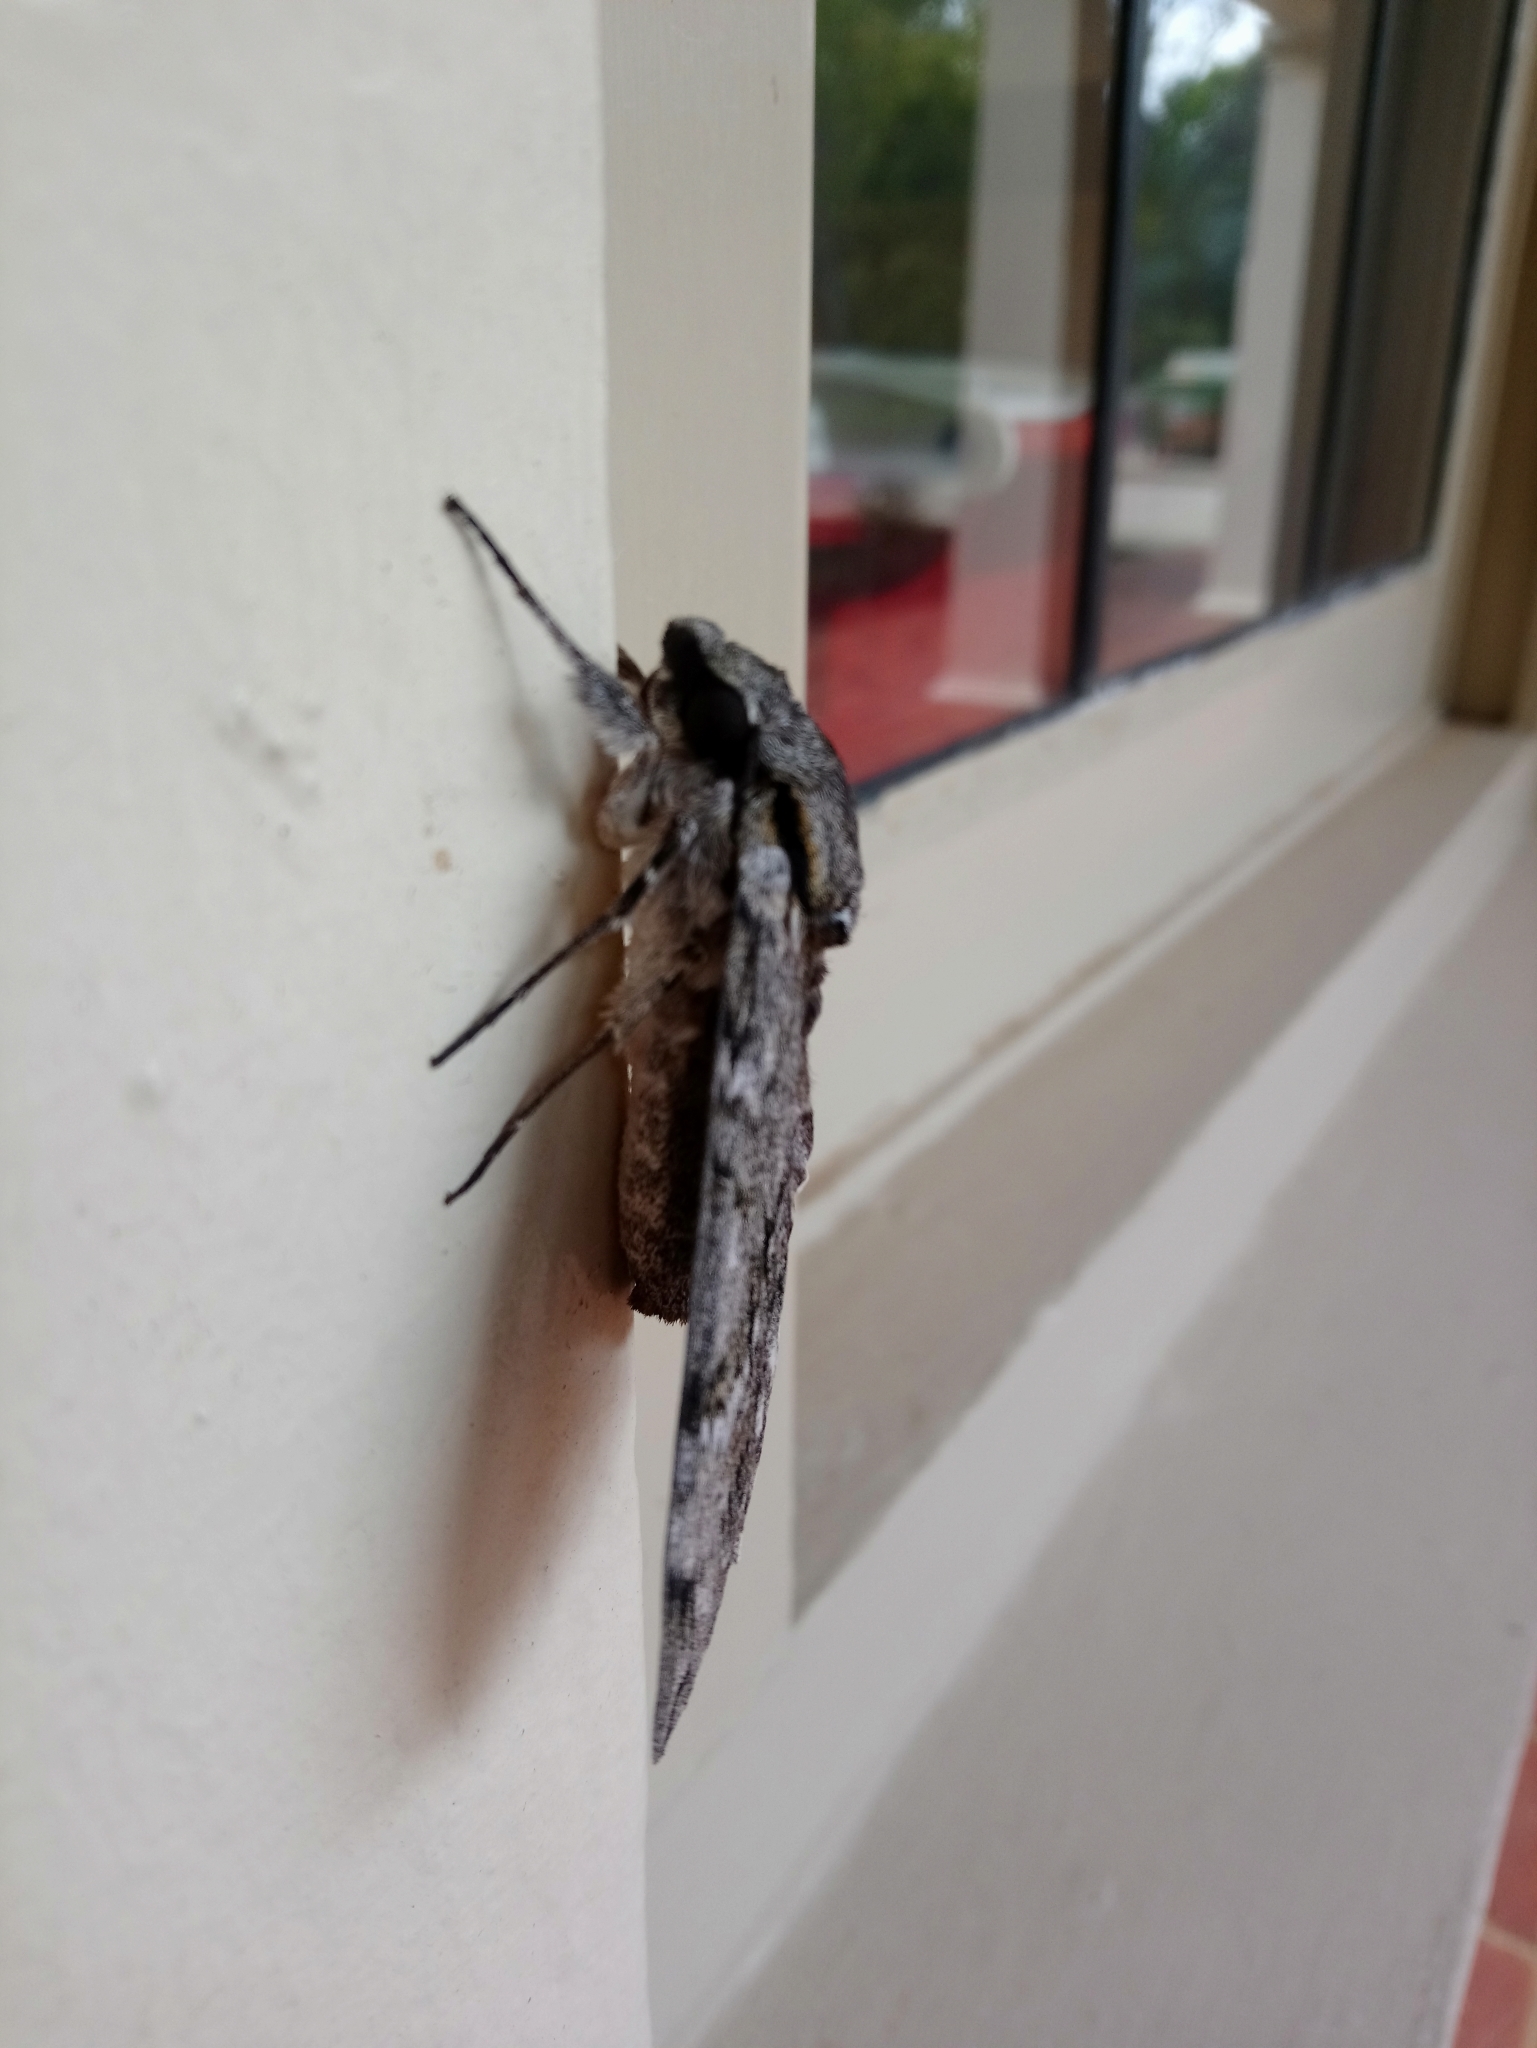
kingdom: Animalia
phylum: Arthropoda
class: Insecta
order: Lepidoptera
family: Sphingidae
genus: Psilogramma
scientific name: Psilogramma casuarinae
